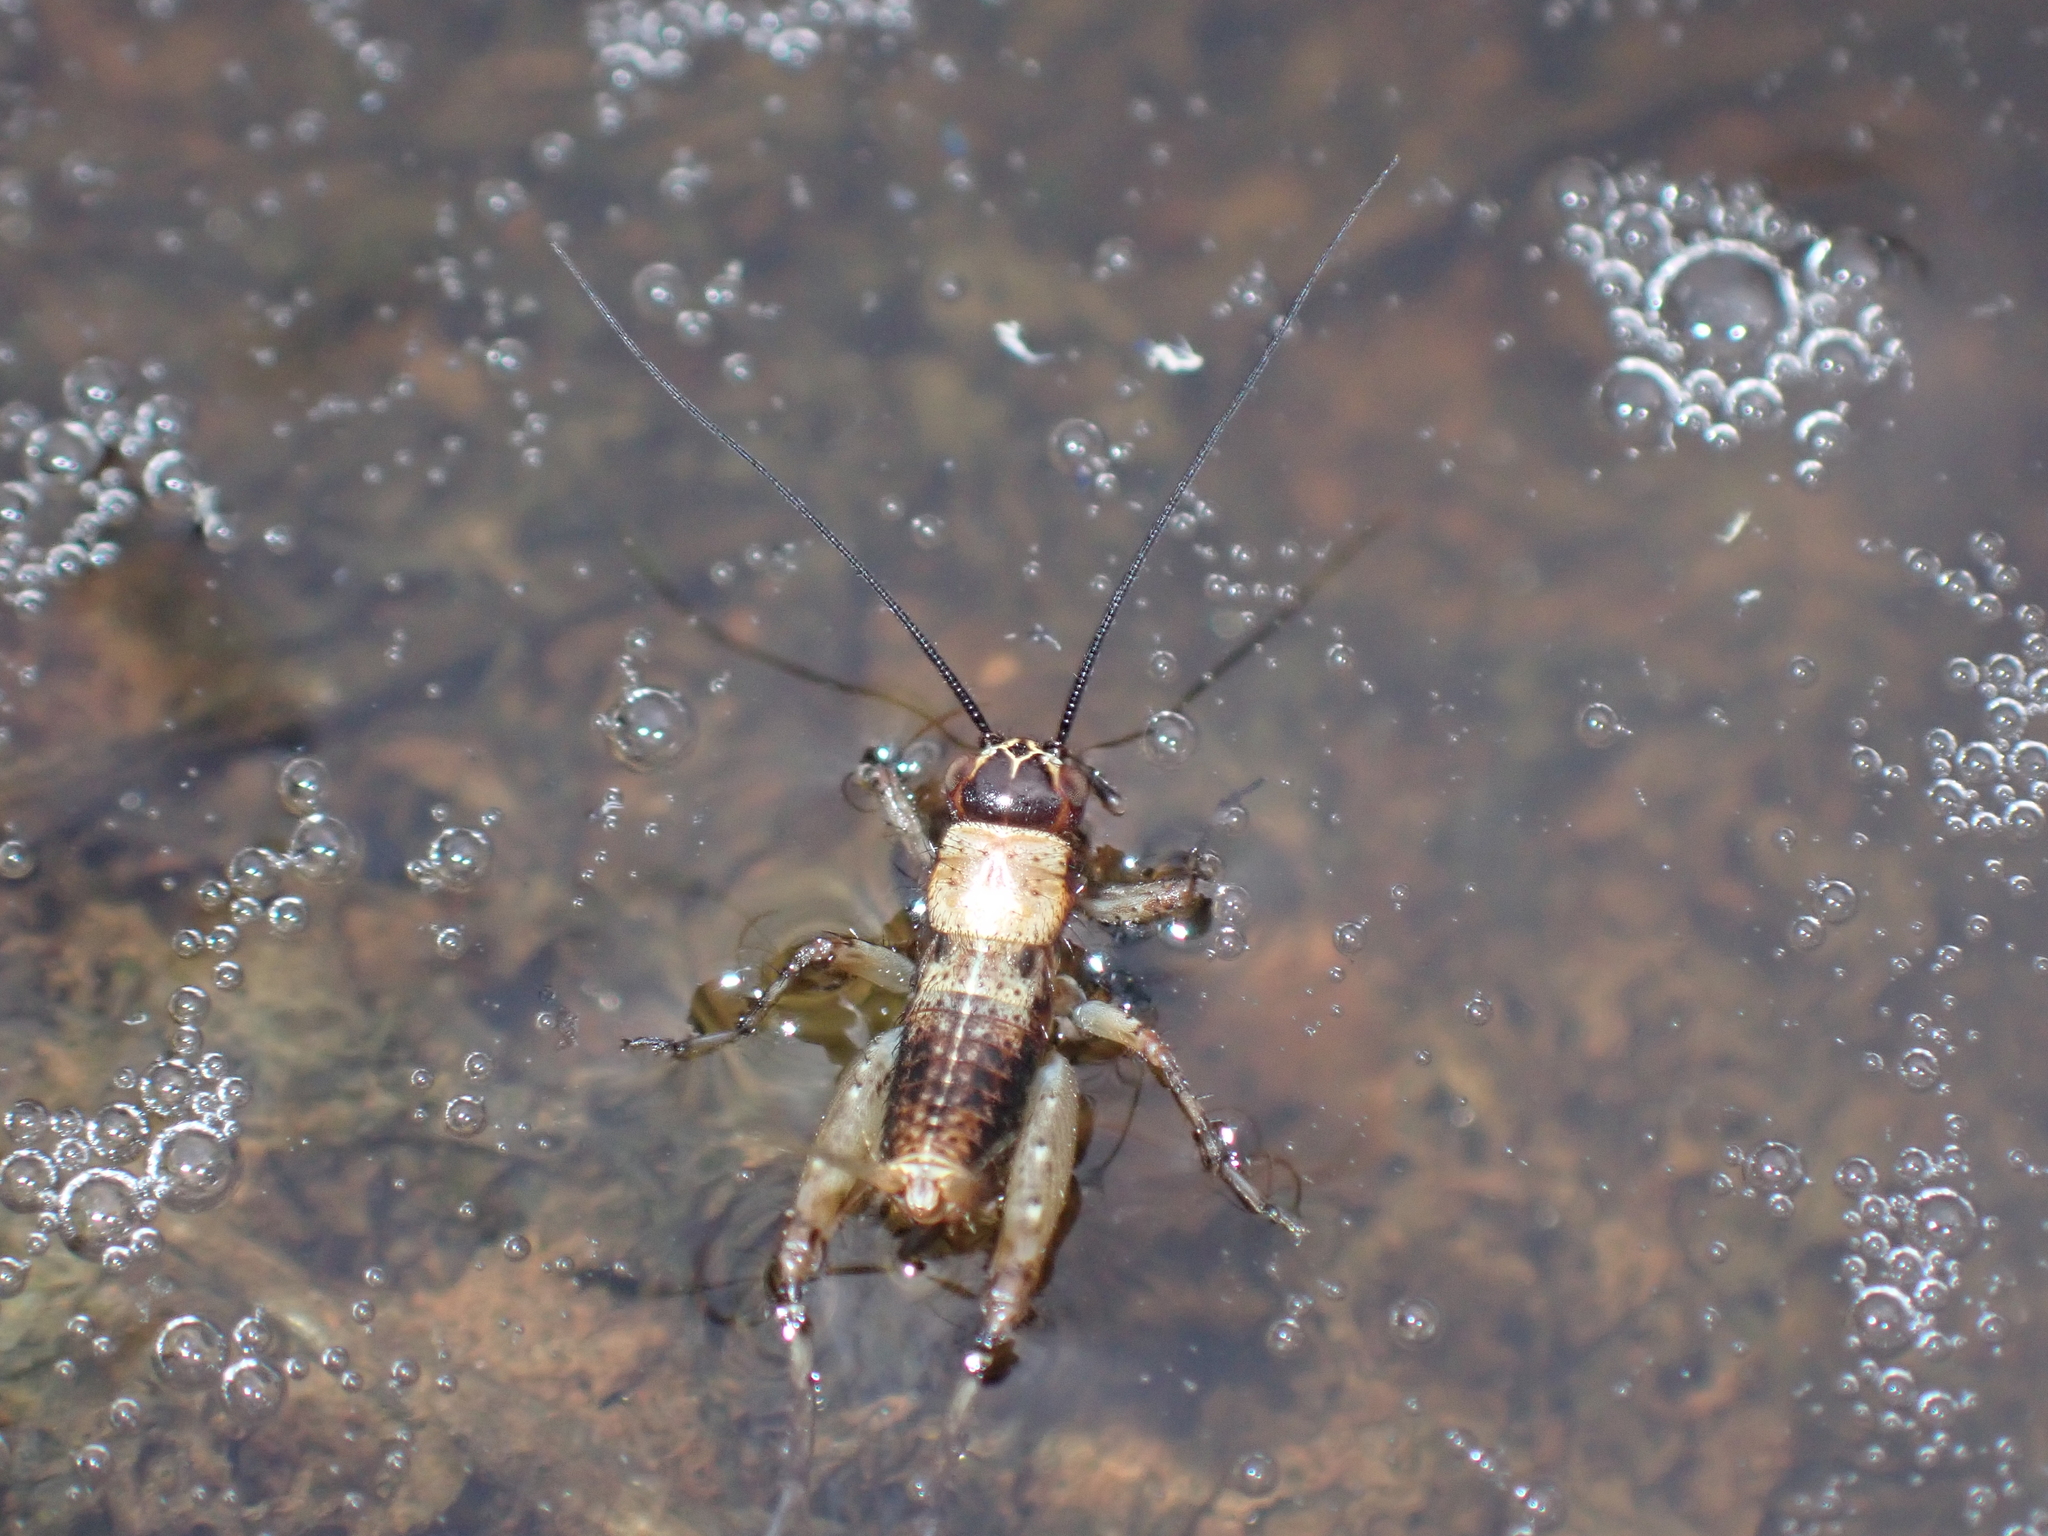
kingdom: Animalia
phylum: Arthropoda
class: Insecta
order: Orthoptera
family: Trigonidiidae
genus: Nemobius
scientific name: Nemobius sylvestris
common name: Wood-cricket
